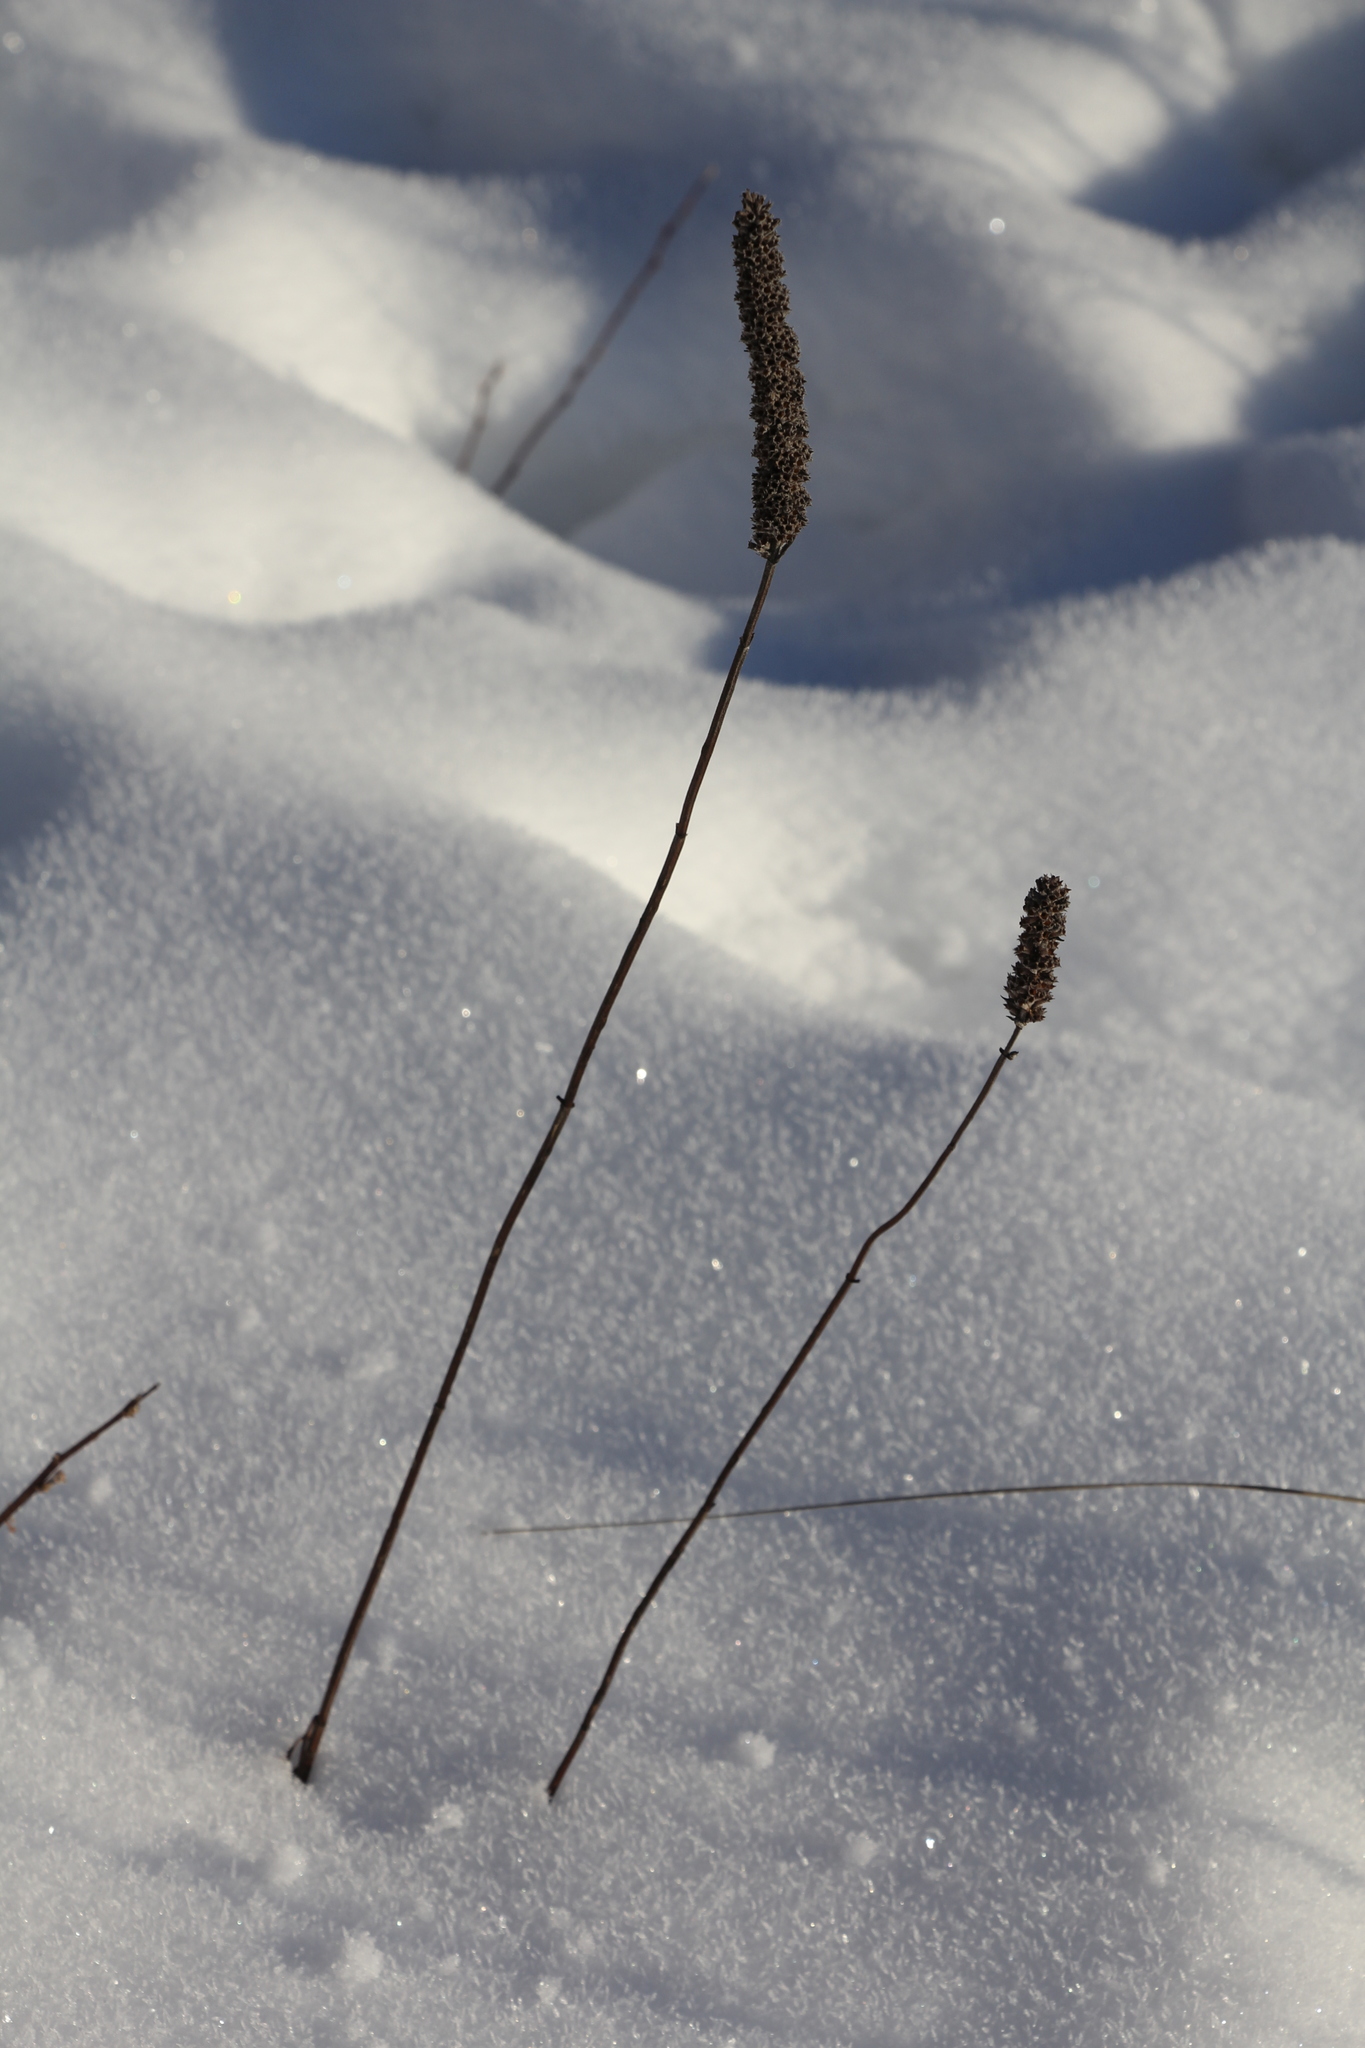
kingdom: Plantae
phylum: Tracheophyta
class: Magnoliopsida
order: Lamiales
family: Lamiaceae
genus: Nepeta
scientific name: Nepeta multifida
